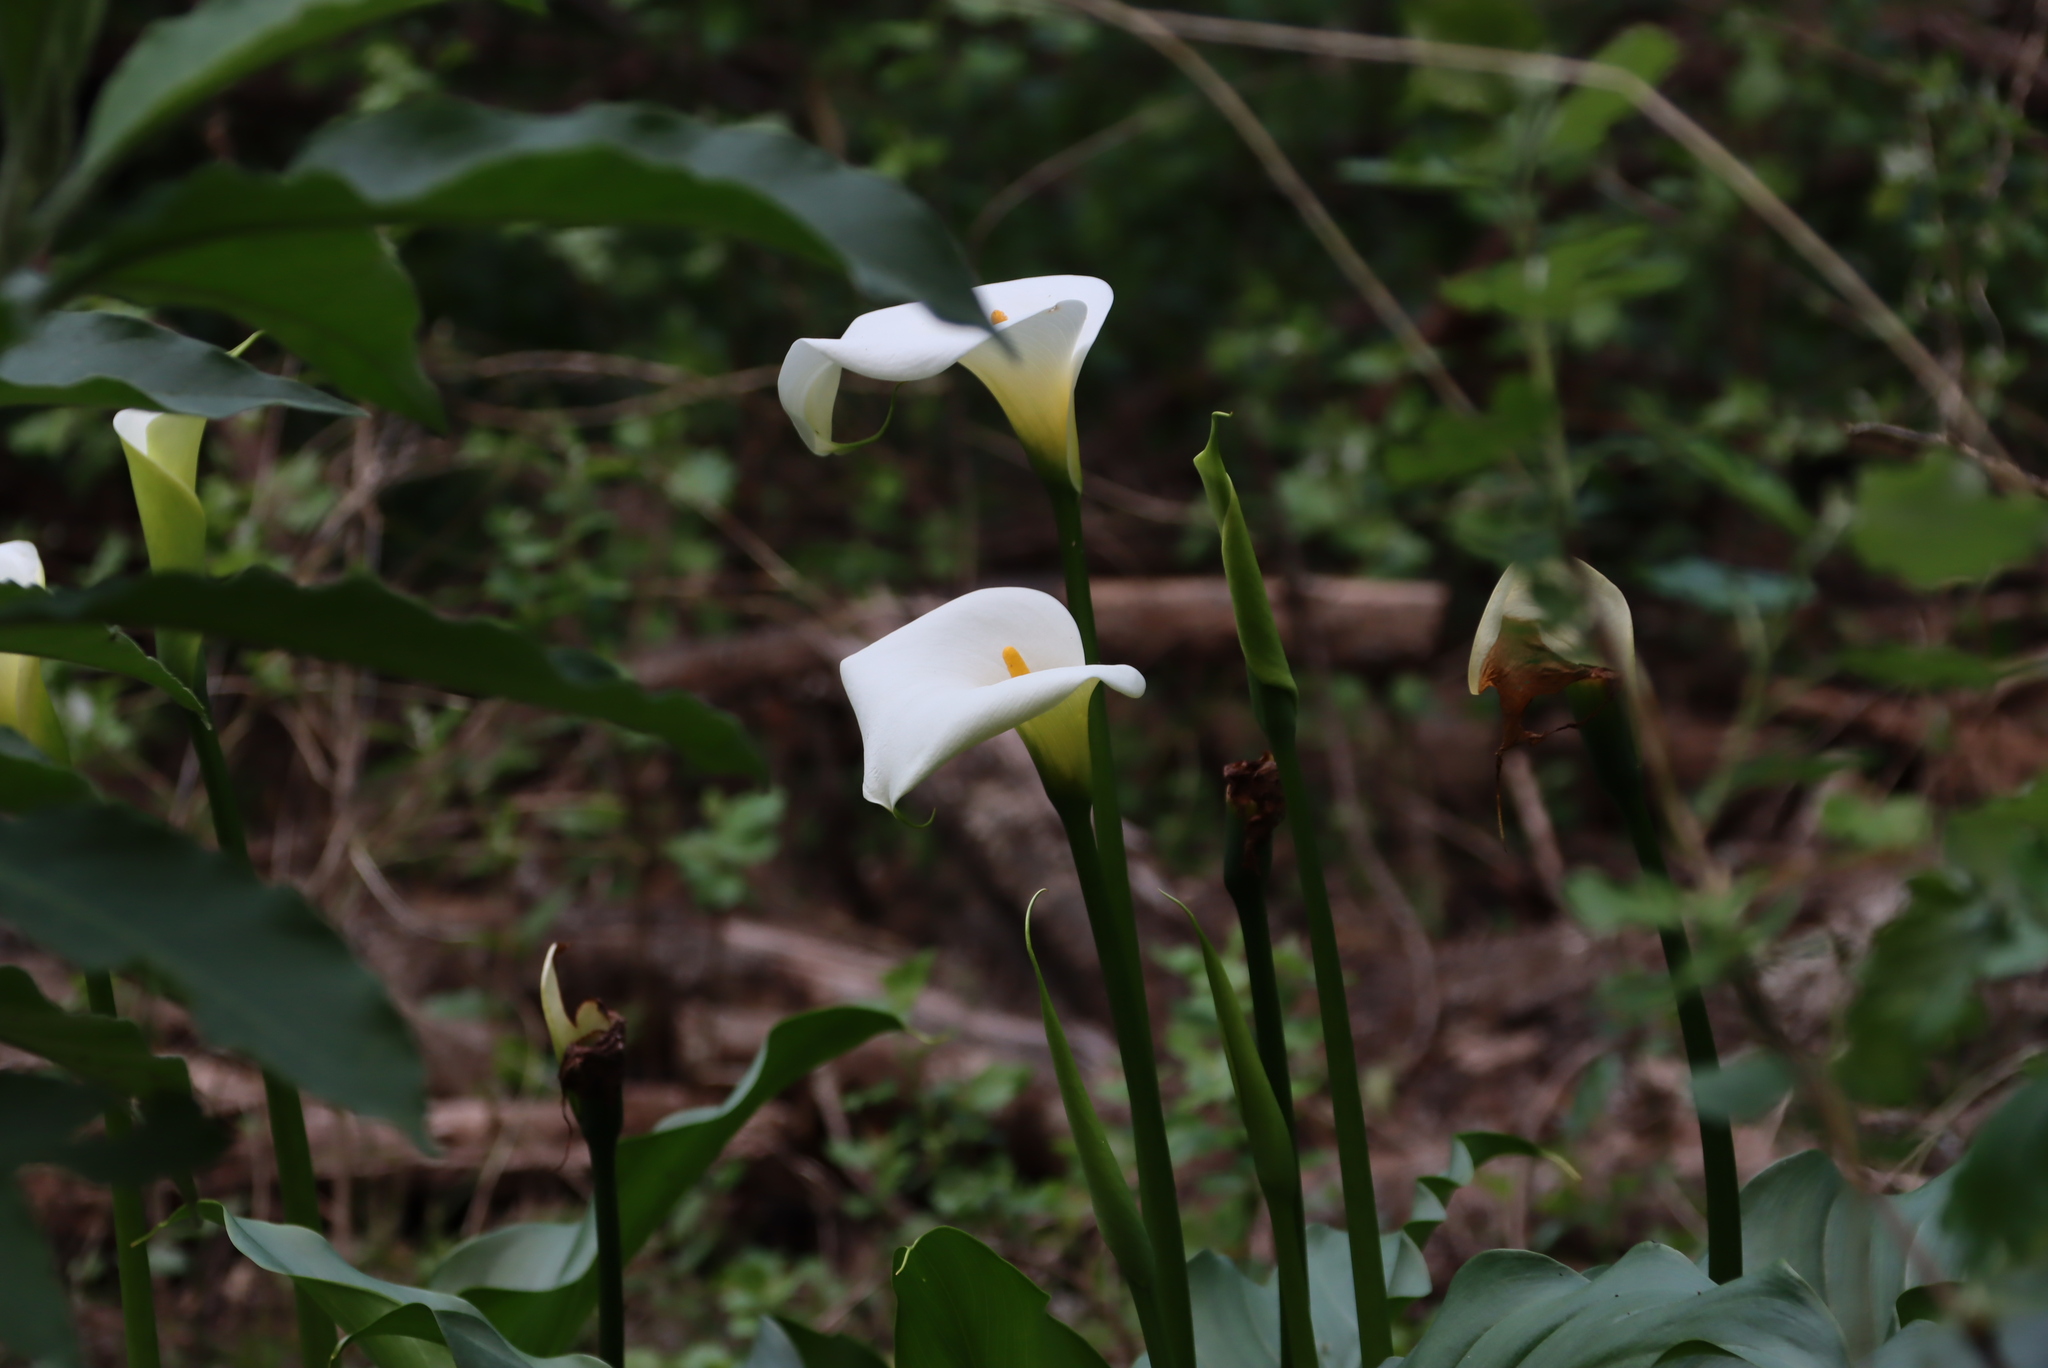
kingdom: Plantae
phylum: Tracheophyta
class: Liliopsida
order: Alismatales
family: Araceae
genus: Zantedeschia
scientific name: Zantedeschia aethiopica
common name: Altar-lily
